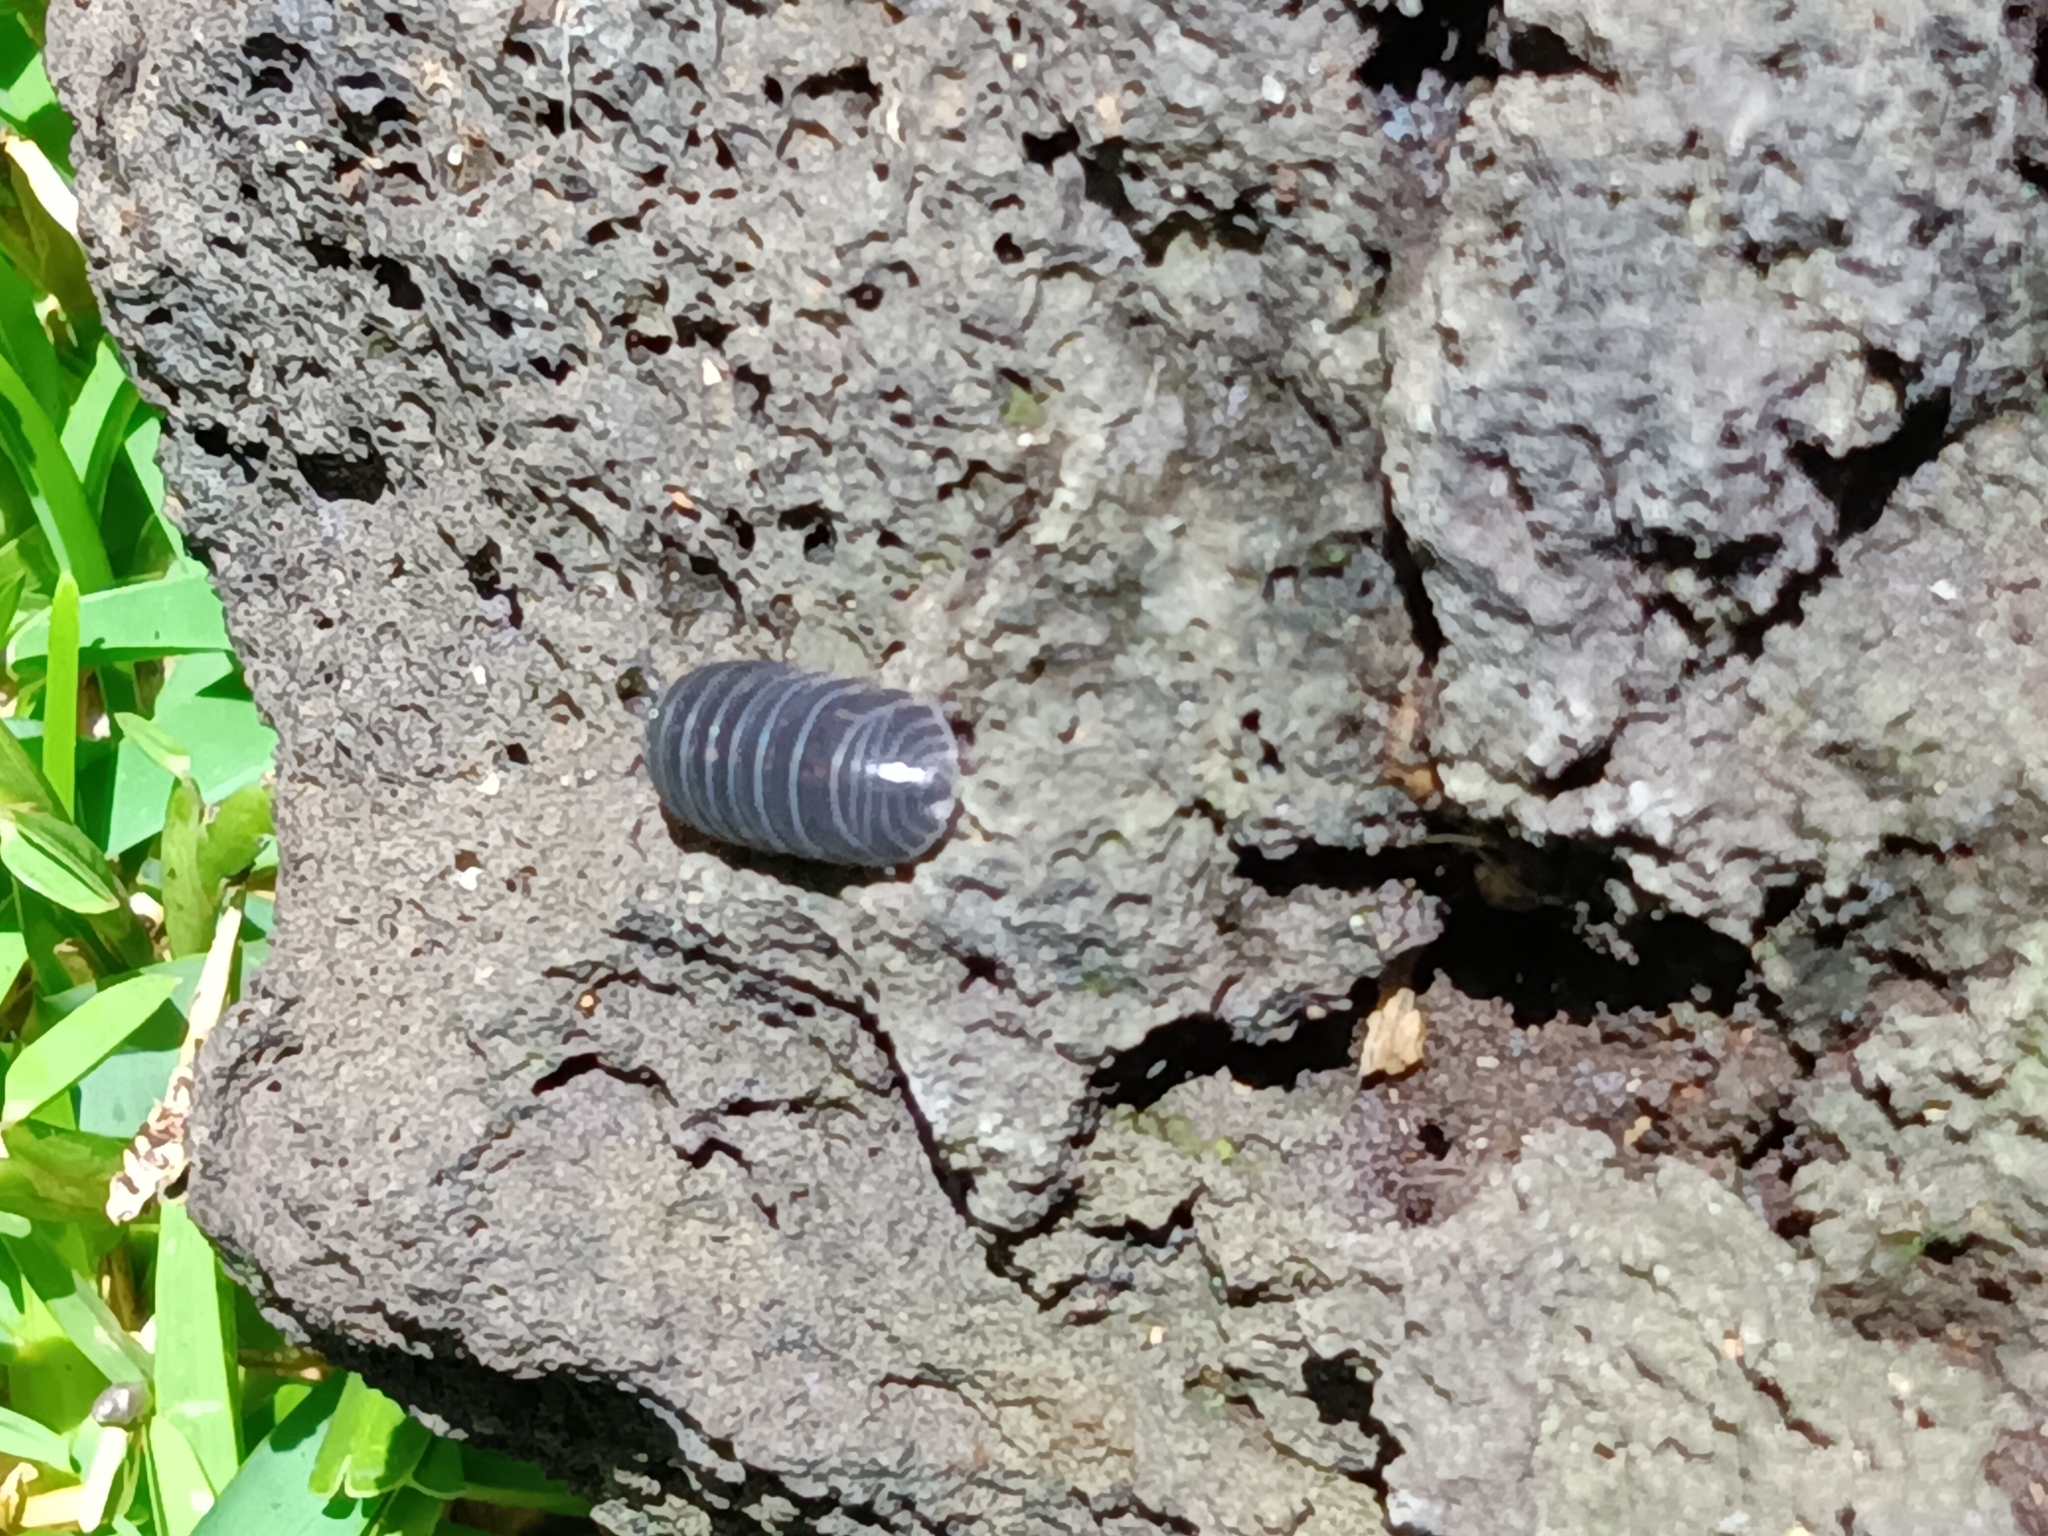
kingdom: Animalia
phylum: Arthropoda
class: Malacostraca
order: Isopoda
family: Armadillidiidae
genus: Armadillidium
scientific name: Armadillidium vulgare
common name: Common pill woodlouse
